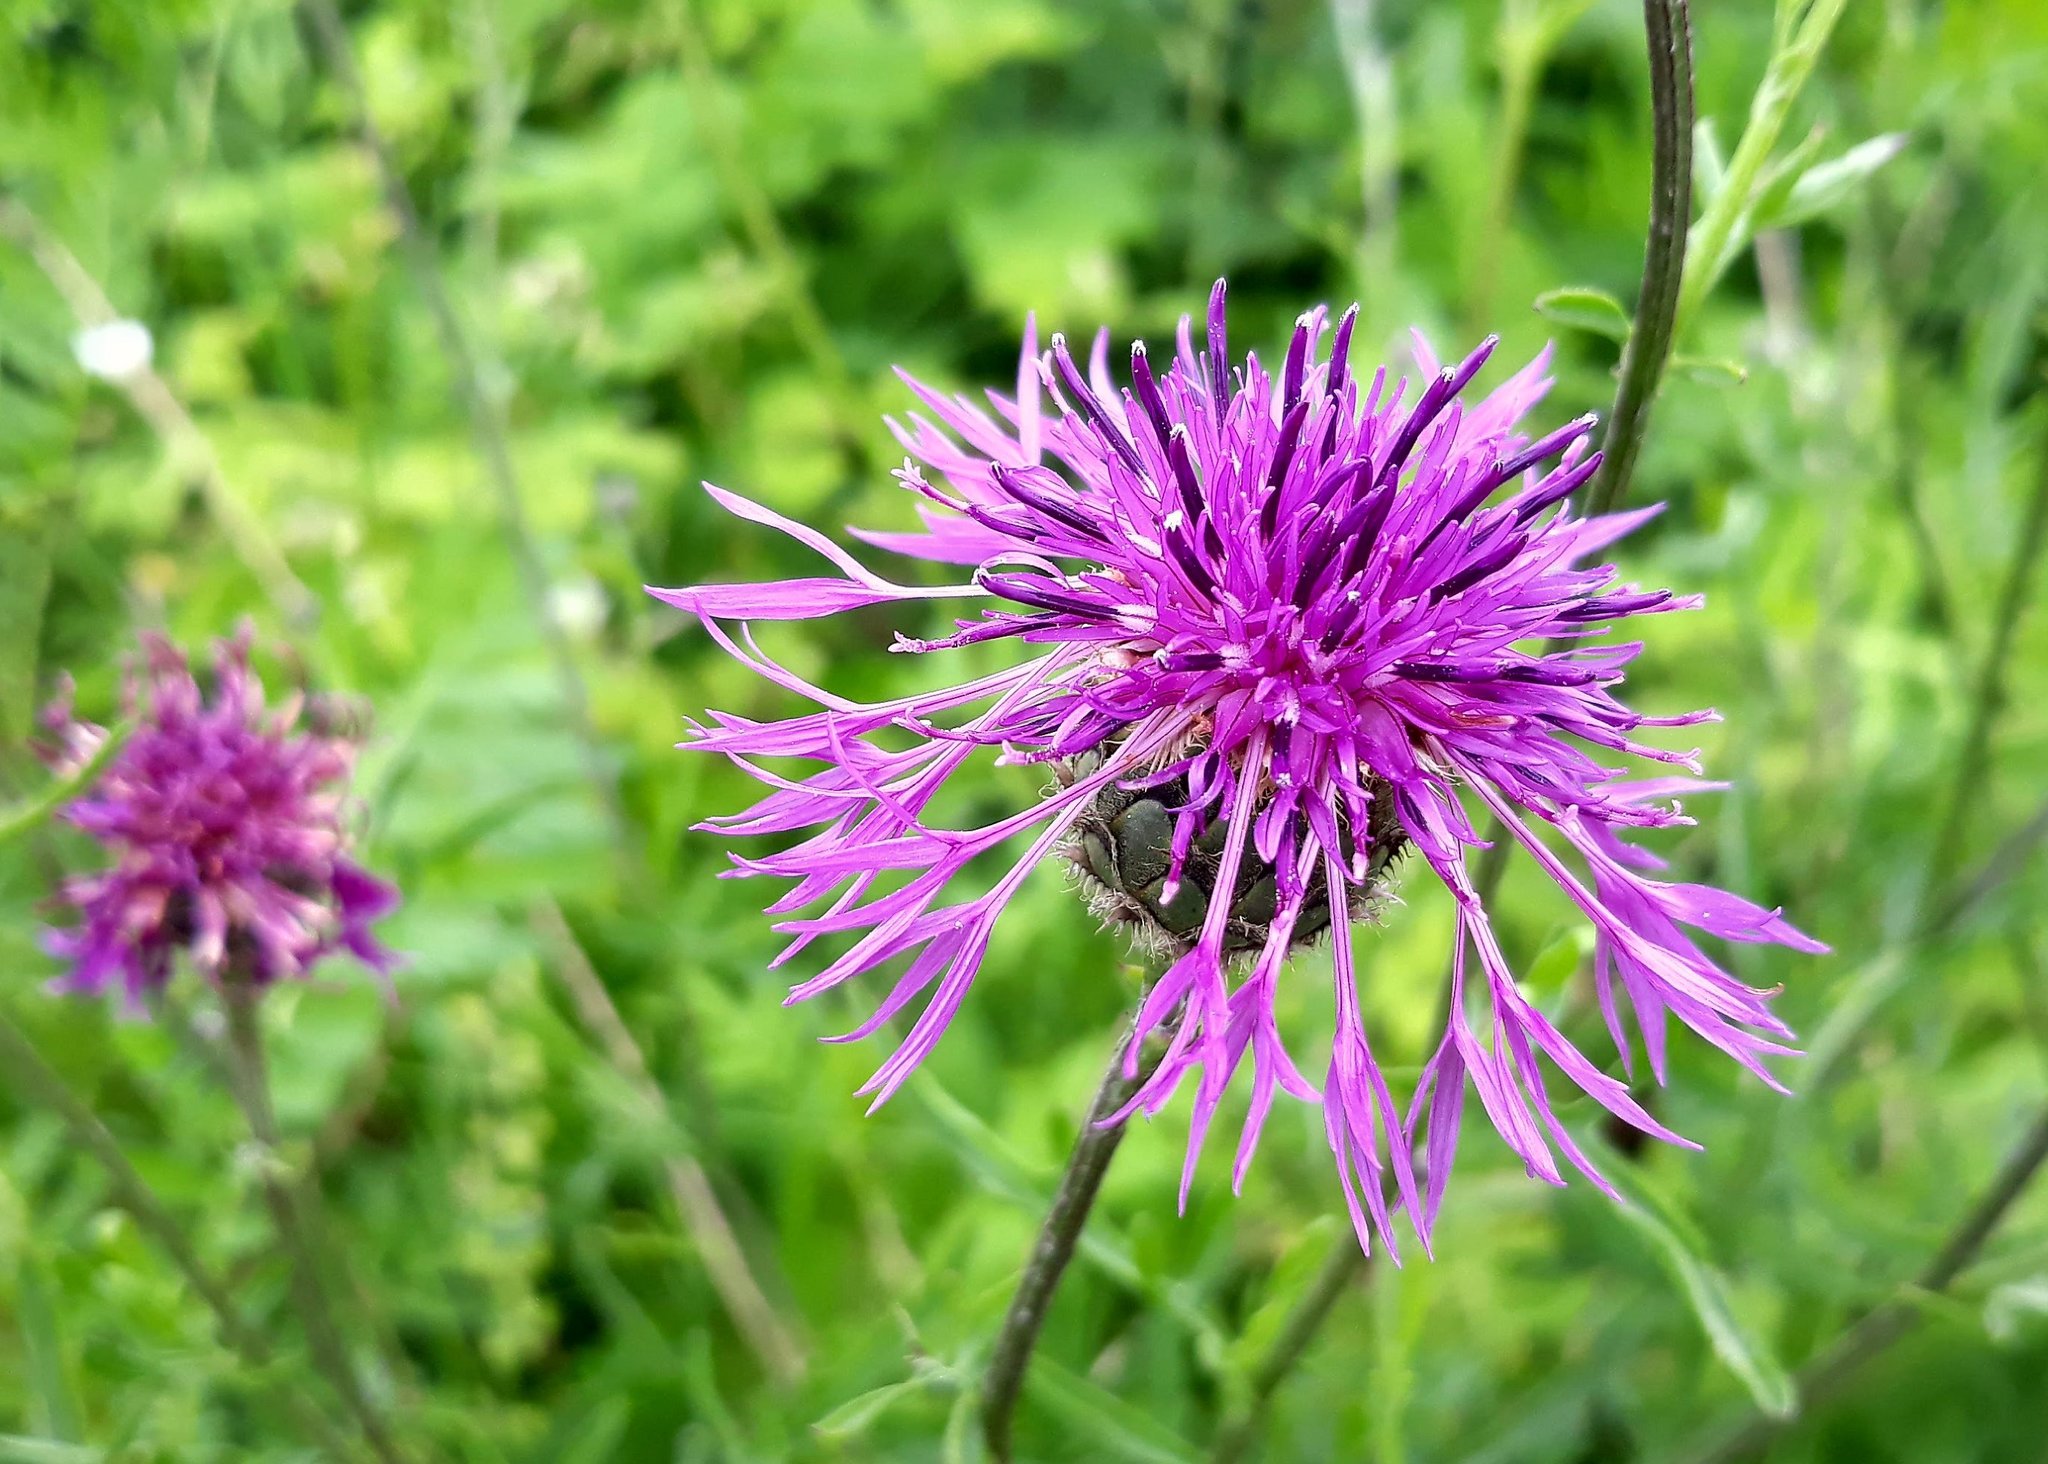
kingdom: Plantae
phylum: Tracheophyta
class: Magnoliopsida
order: Asterales
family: Asteraceae
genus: Centaurea
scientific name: Centaurea scabiosa
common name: Greater knapweed
